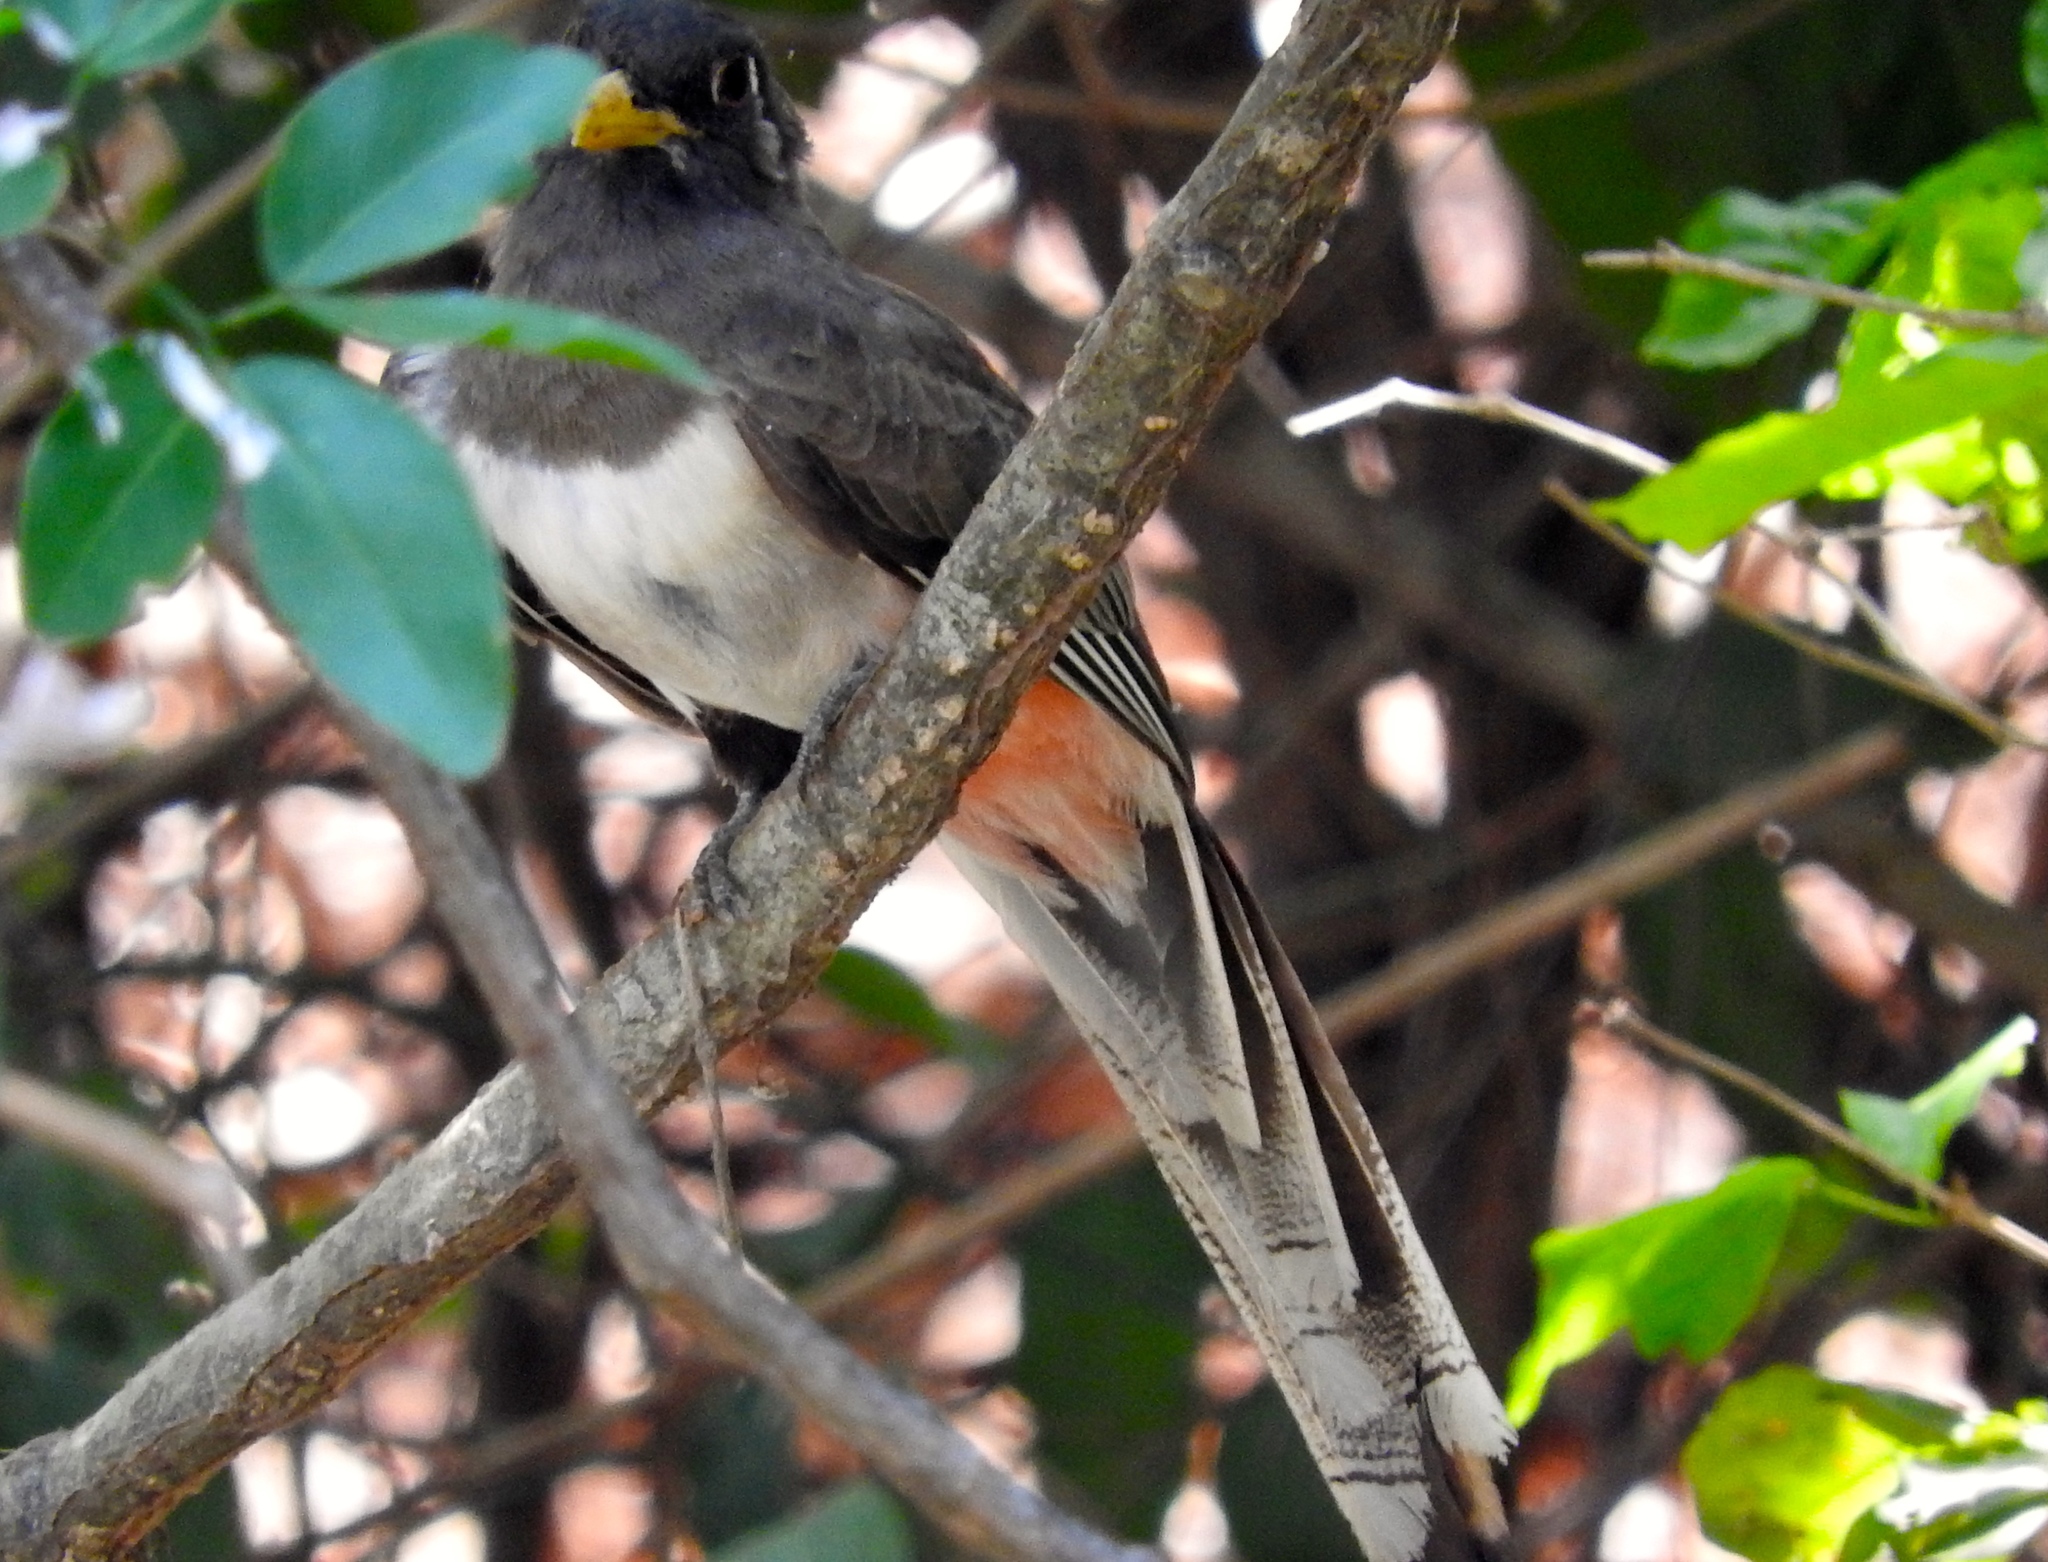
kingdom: Animalia
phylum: Chordata
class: Aves
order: Trogoniformes
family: Trogonidae
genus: Trogon
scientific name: Trogon elegans
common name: Elegant trogon
